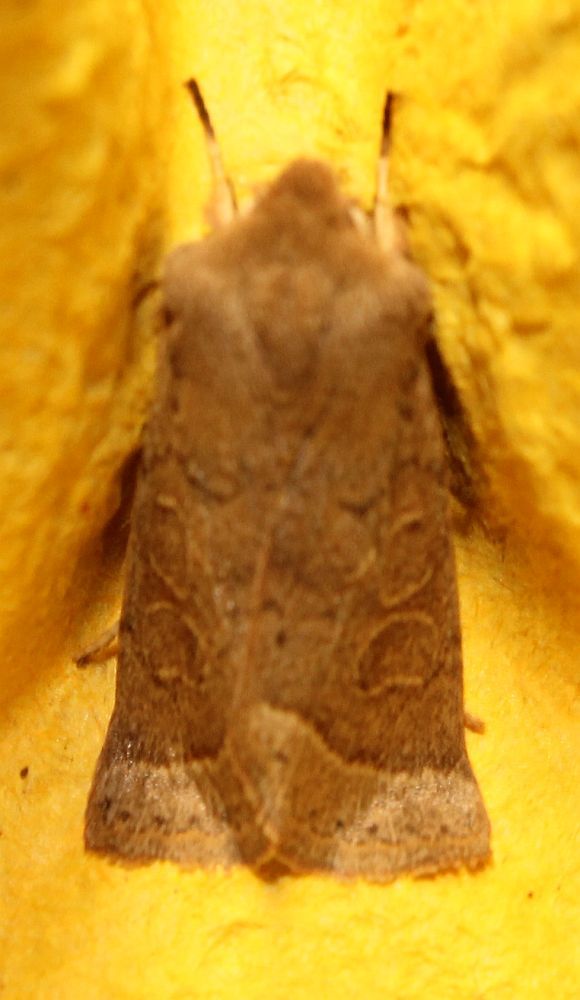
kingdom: Animalia
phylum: Arthropoda
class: Insecta
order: Lepidoptera
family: Noctuidae
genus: Orthosia
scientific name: Orthosia cerasi
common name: Common quaker
